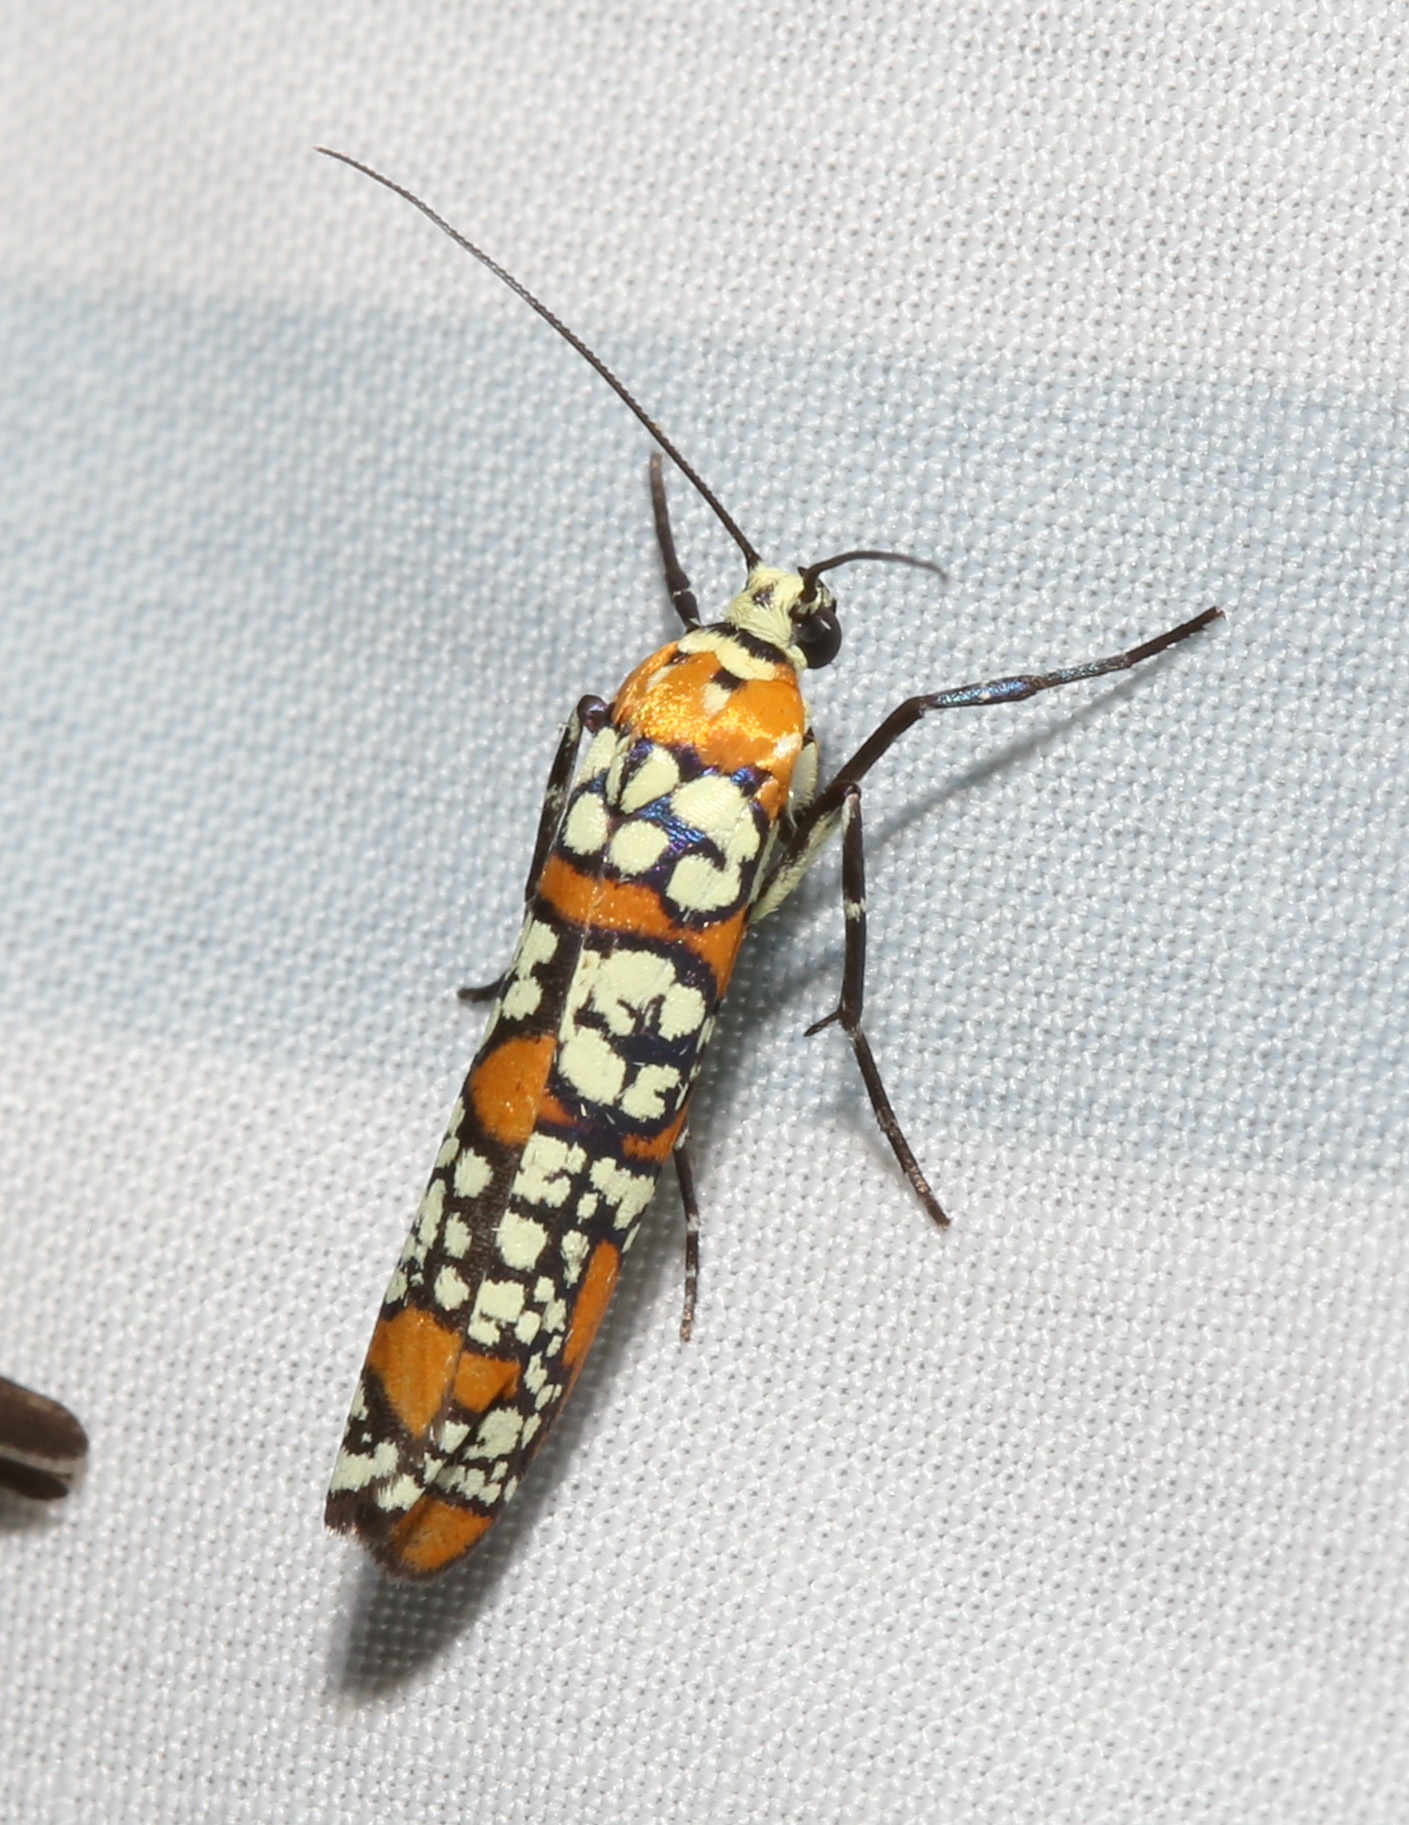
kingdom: Animalia
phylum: Arthropoda
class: Insecta
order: Lepidoptera
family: Attevidae
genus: Atteva
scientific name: Atteva punctella
